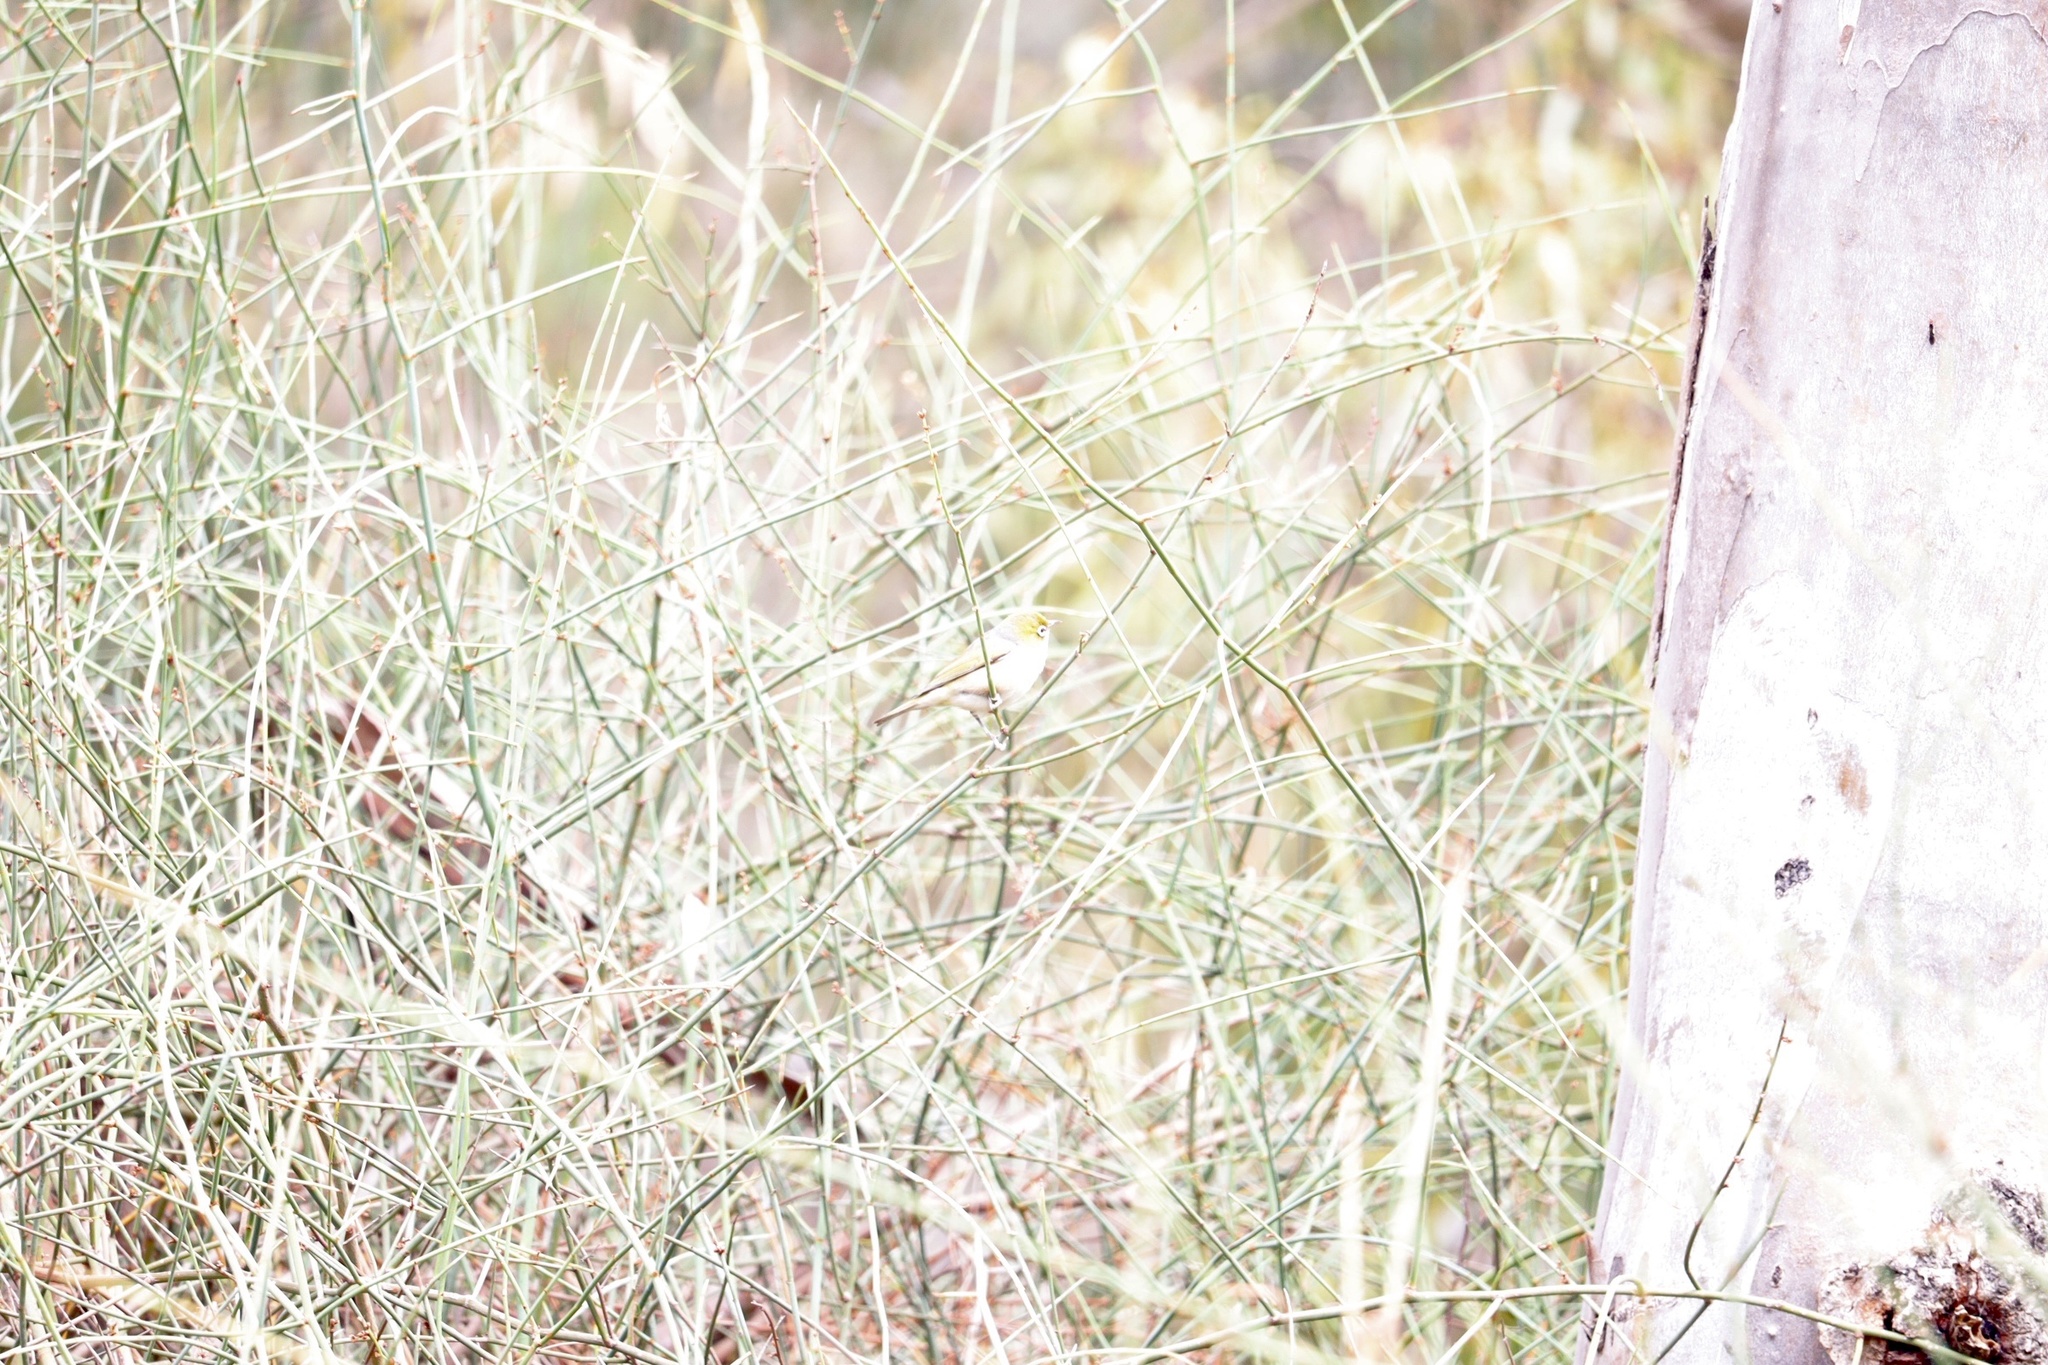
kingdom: Animalia
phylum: Chordata
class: Aves
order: Passeriformes
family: Zosteropidae
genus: Zosterops
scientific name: Zosterops lateralis
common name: Silvereye
